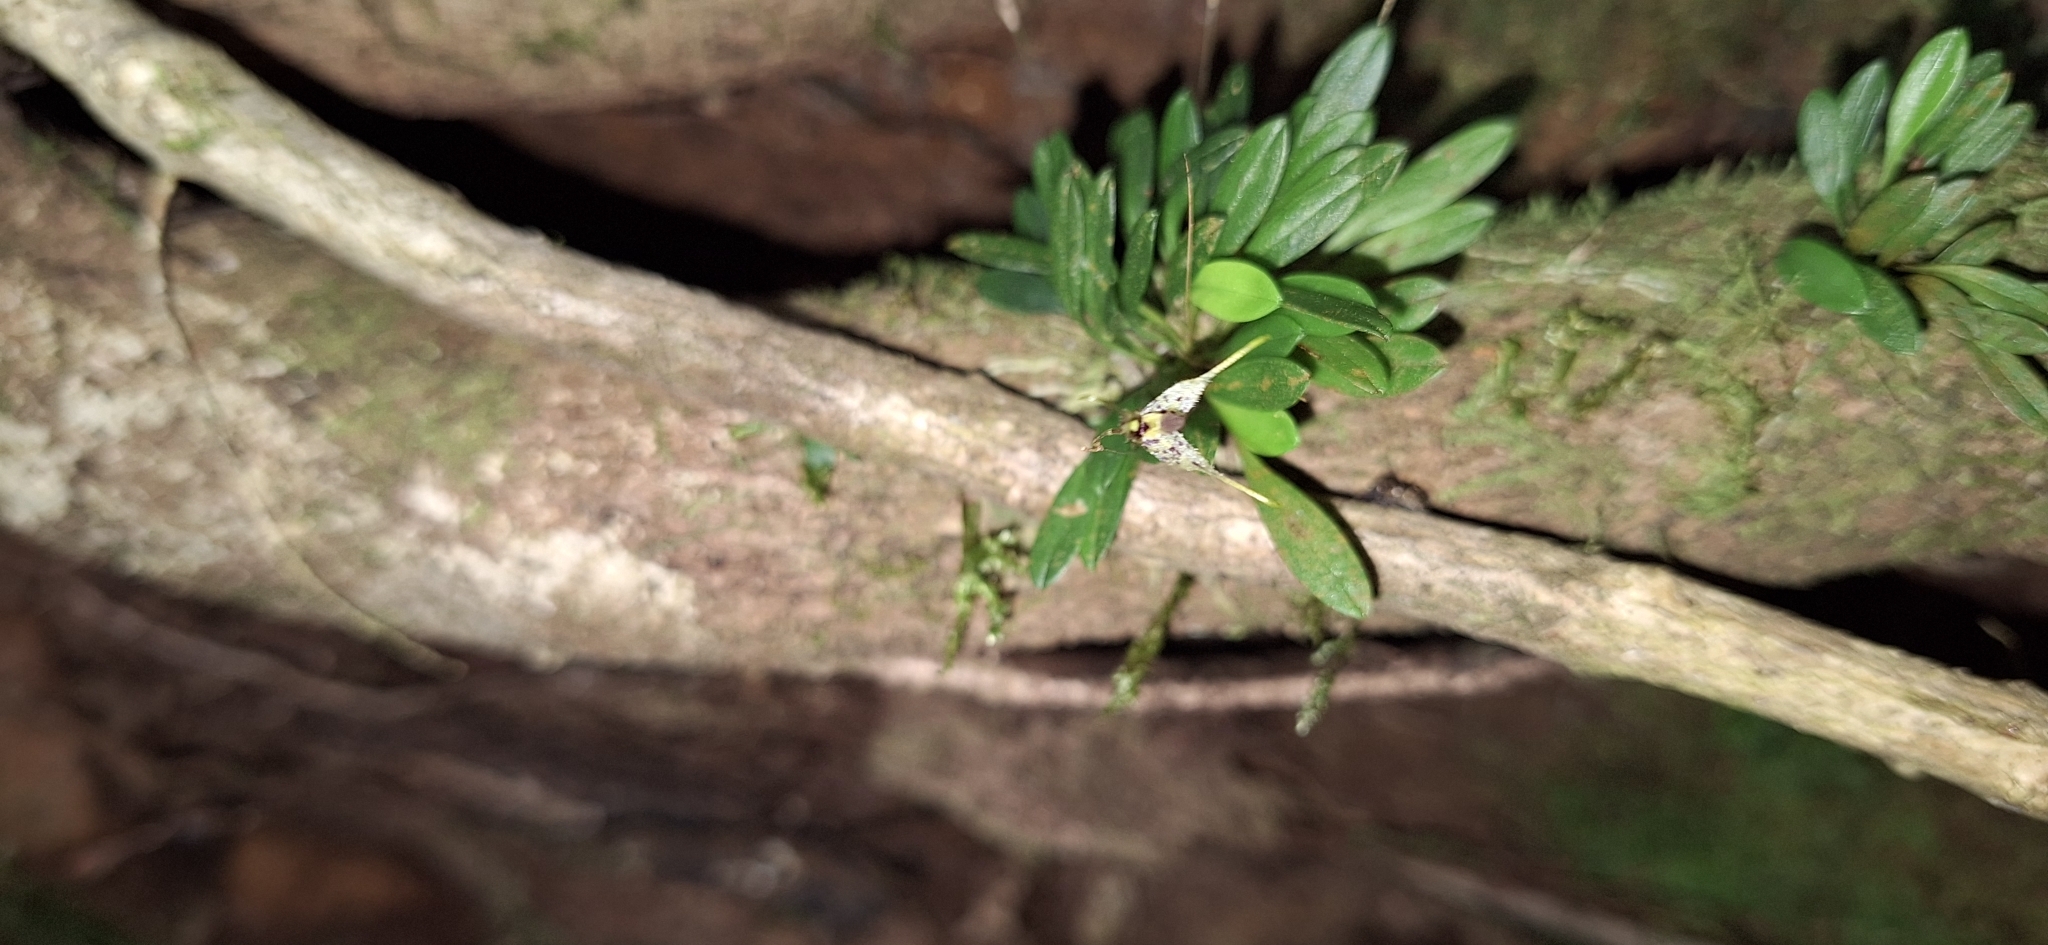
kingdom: Plantae
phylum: Tracheophyta
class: Liliopsida
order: Asparagales
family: Orchidaceae
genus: Muscarella
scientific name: Muscarella strumosa
